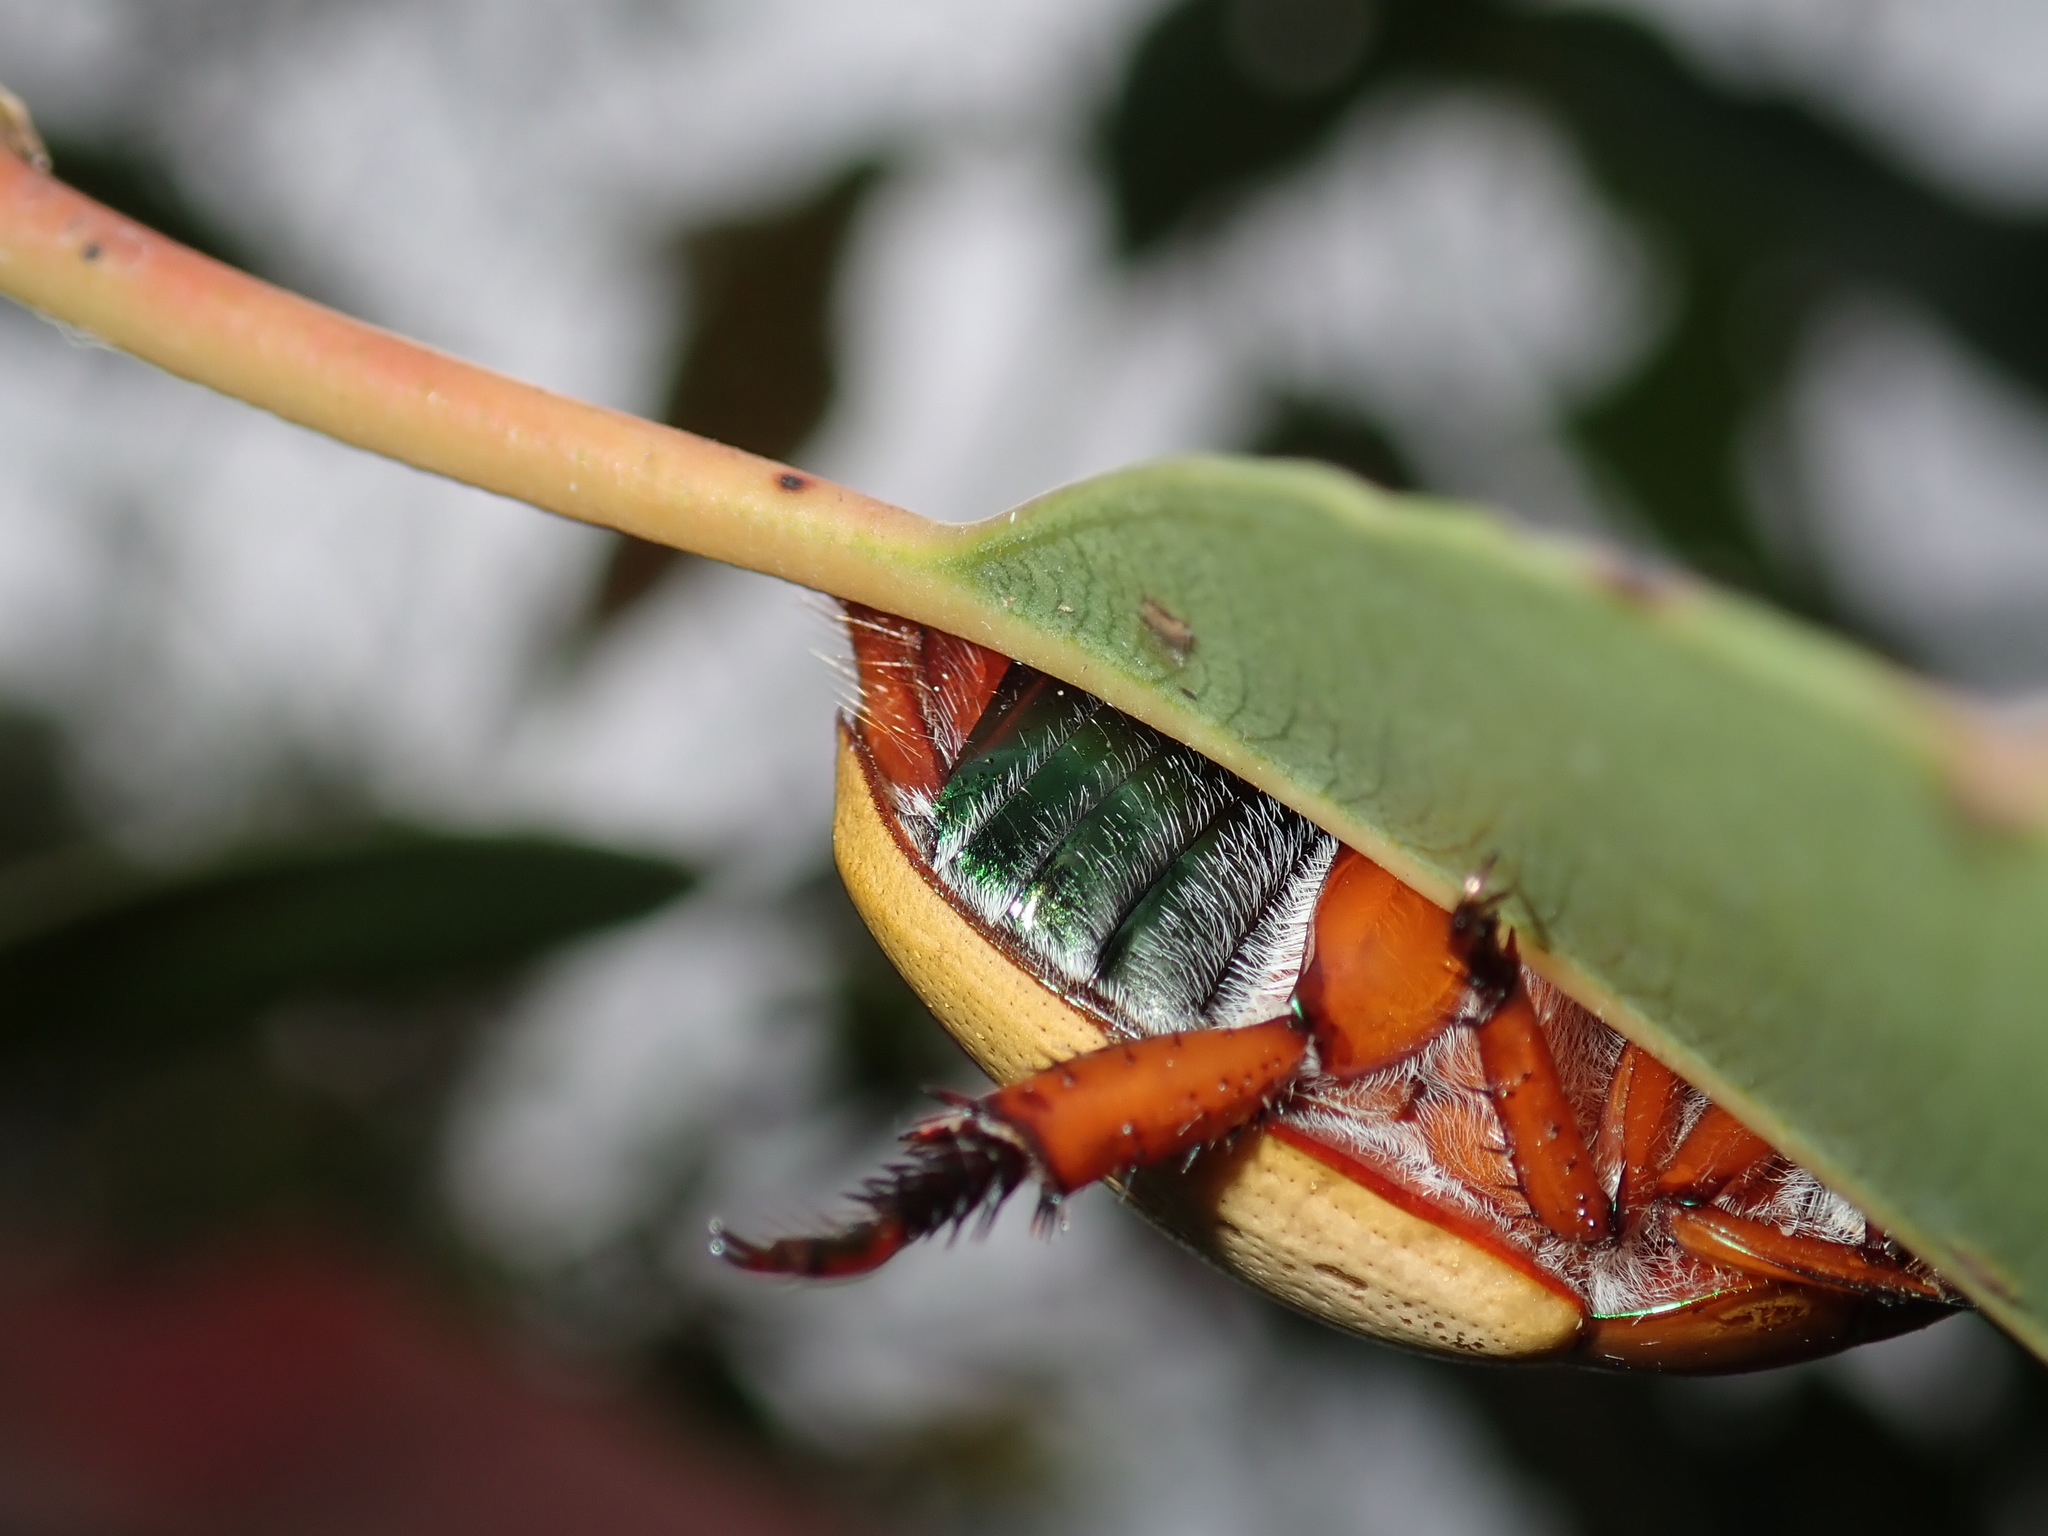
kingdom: Animalia
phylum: Arthropoda
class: Insecta
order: Coleoptera
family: Scarabaeidae
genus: Anoplognathus
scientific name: Anoplognathus olivieri
